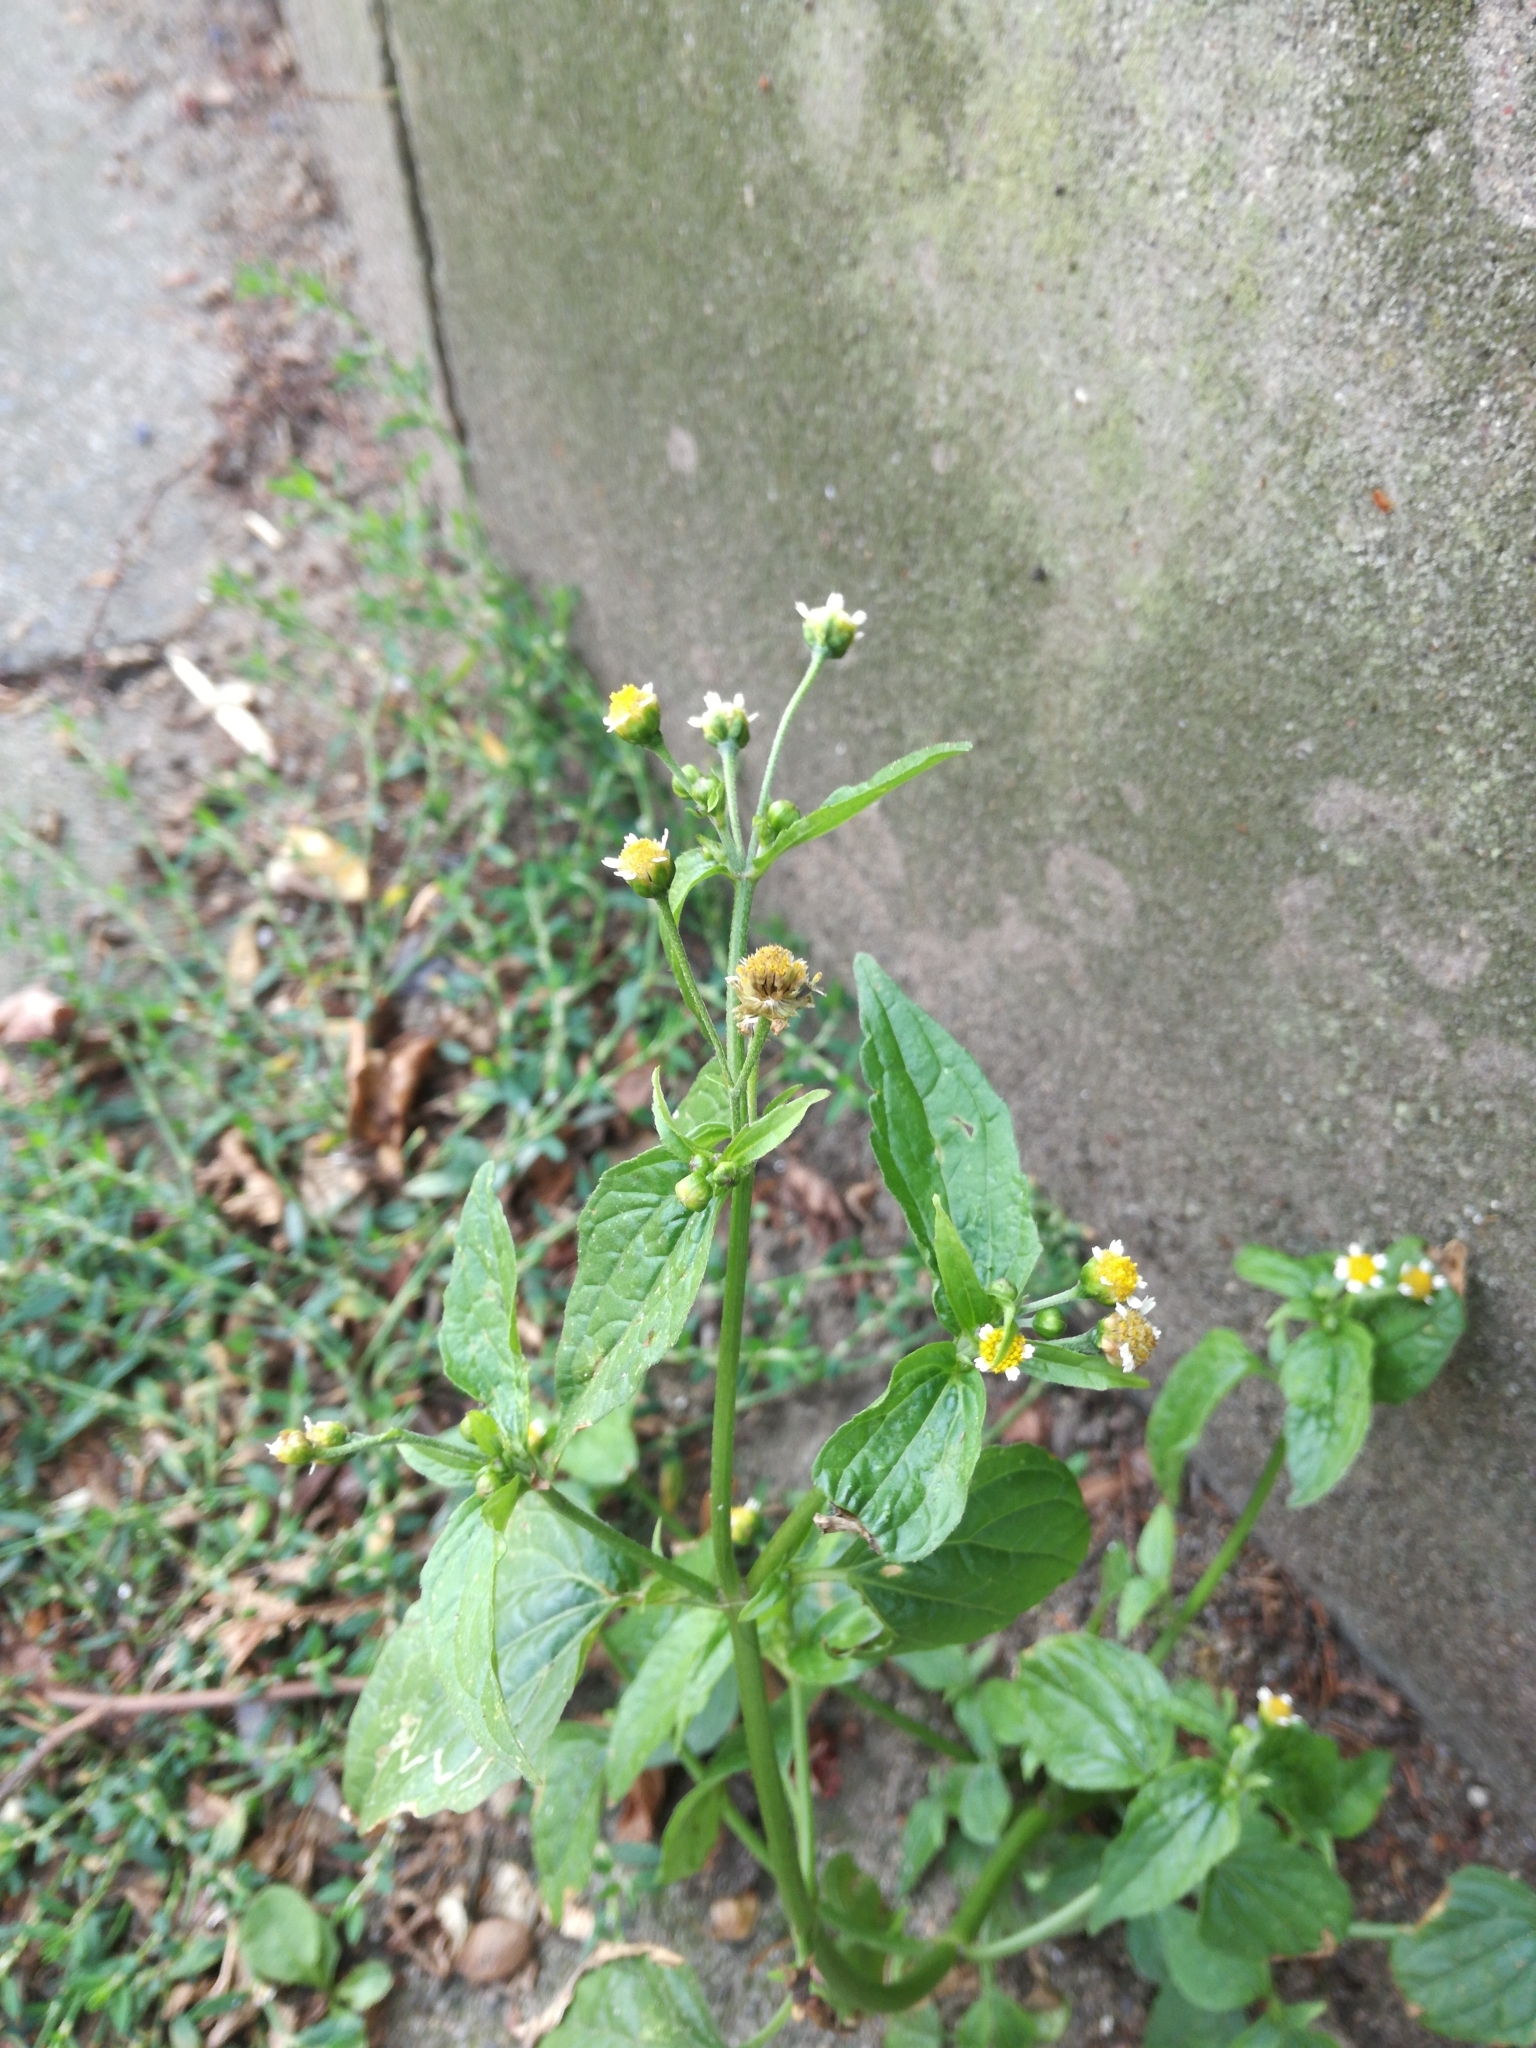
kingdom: Plantae
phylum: Tracheophyta
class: Magnoliopsida
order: Asterales
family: Asteraceae
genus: Galinsoga
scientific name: Galinsoga parviflora
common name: Gallant soldier
